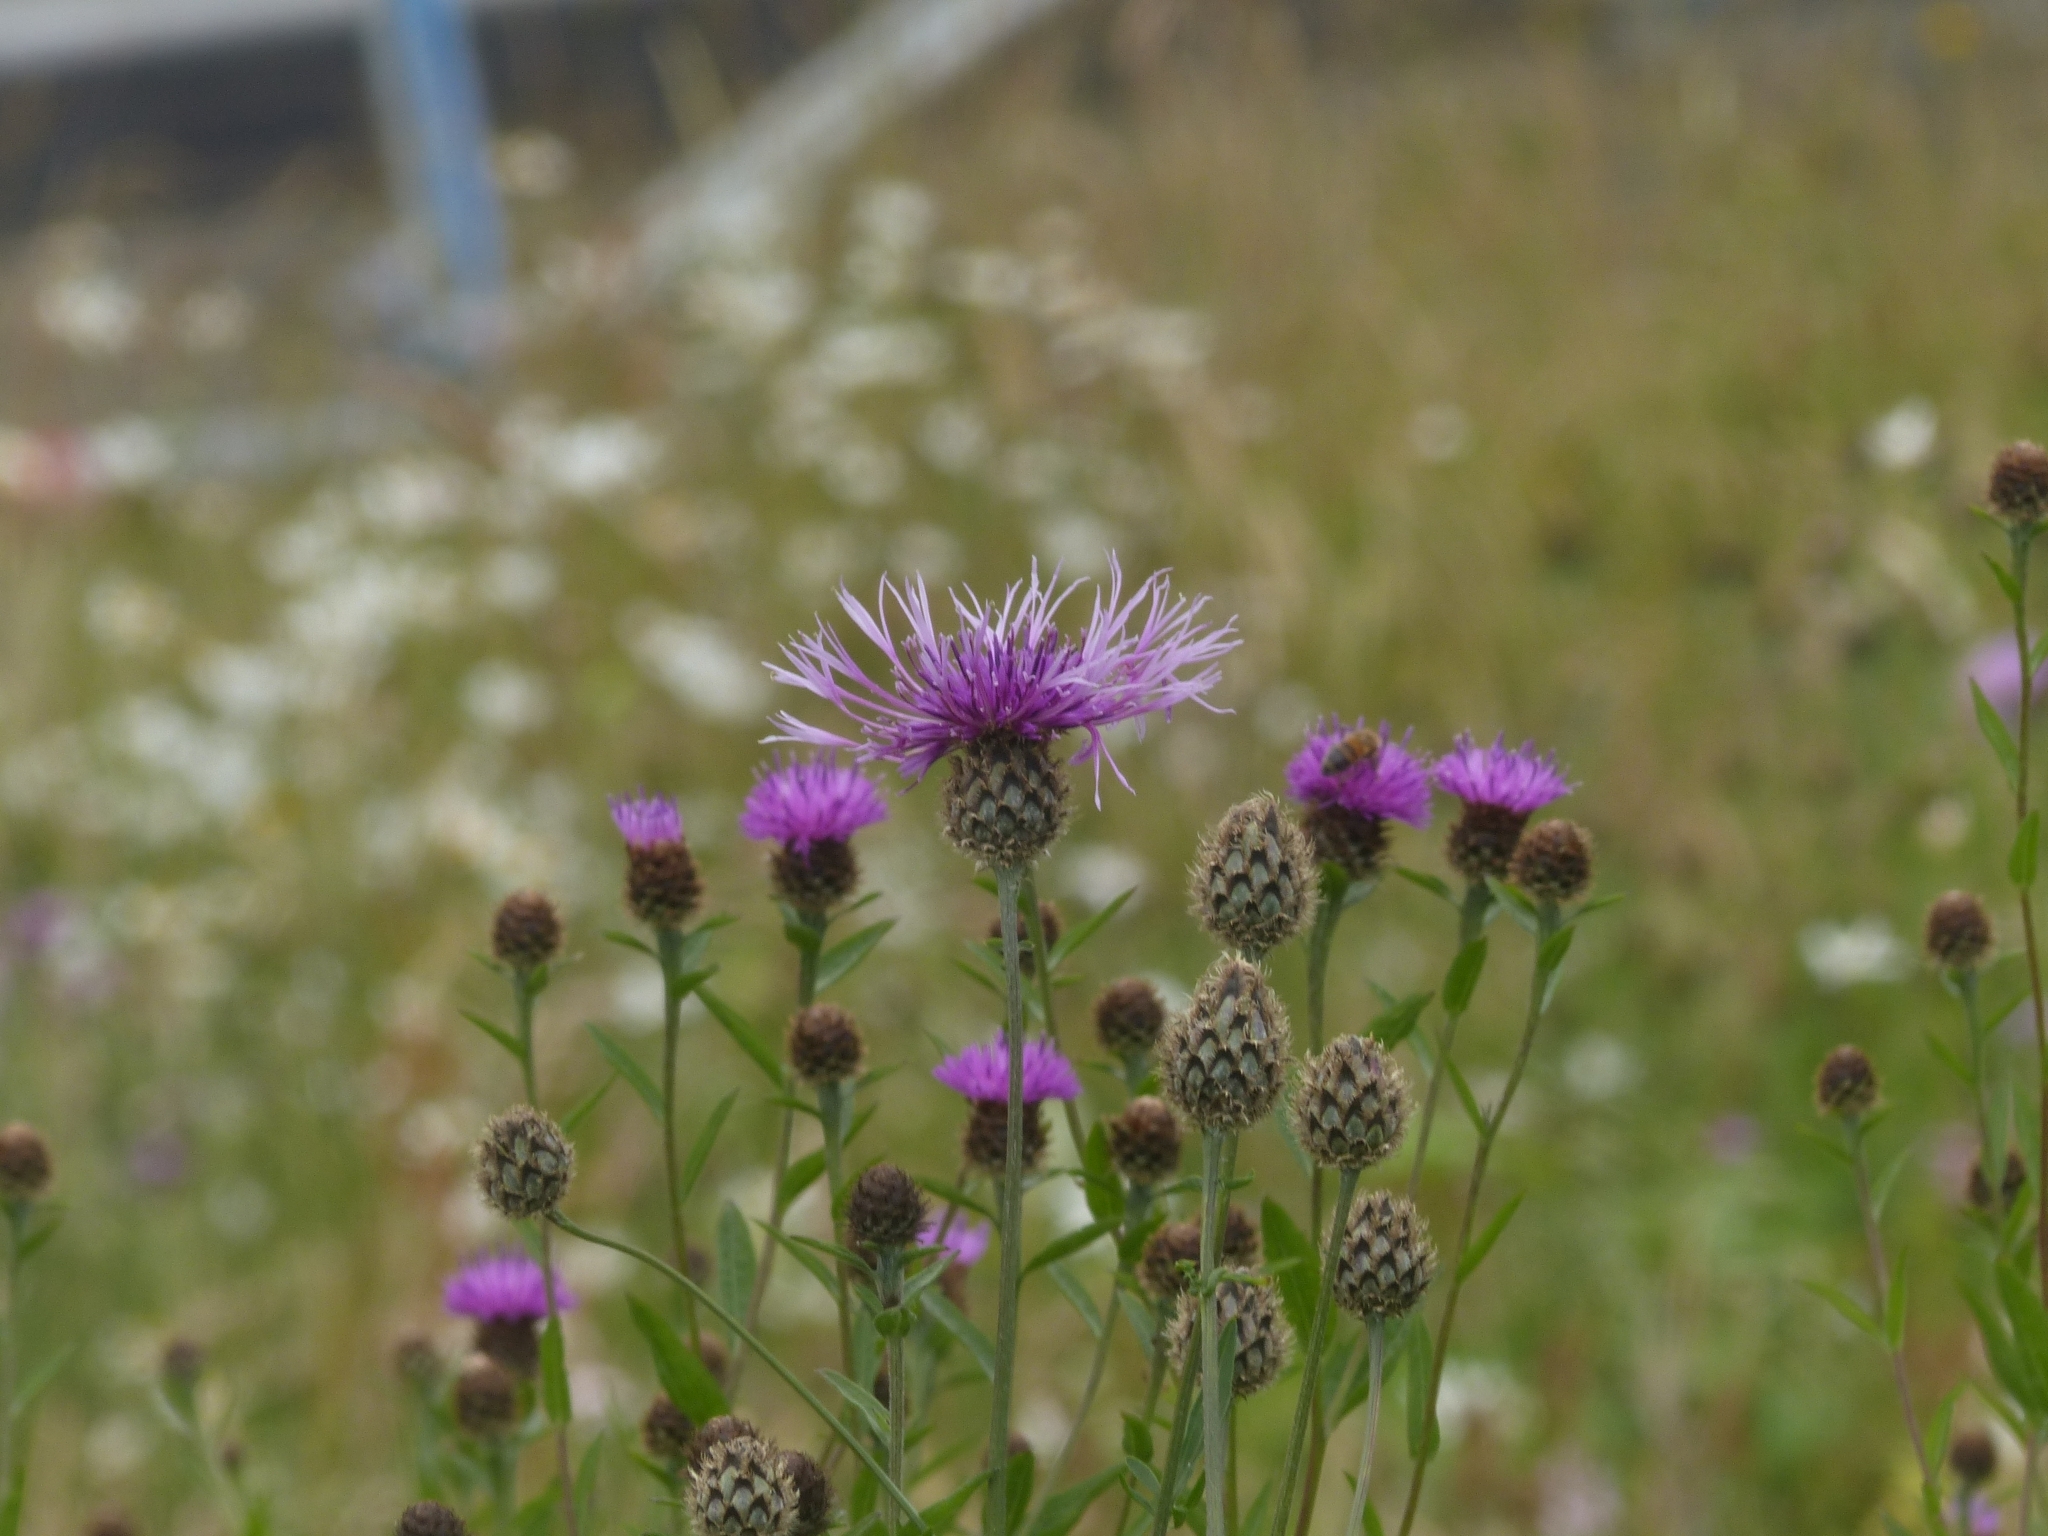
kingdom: Plantae
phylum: Tracheophyta
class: Magnoliopsida
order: Asterales
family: Asteraceae
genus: Centaurea
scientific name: Centaurea scabiosa
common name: Greater knapweed
